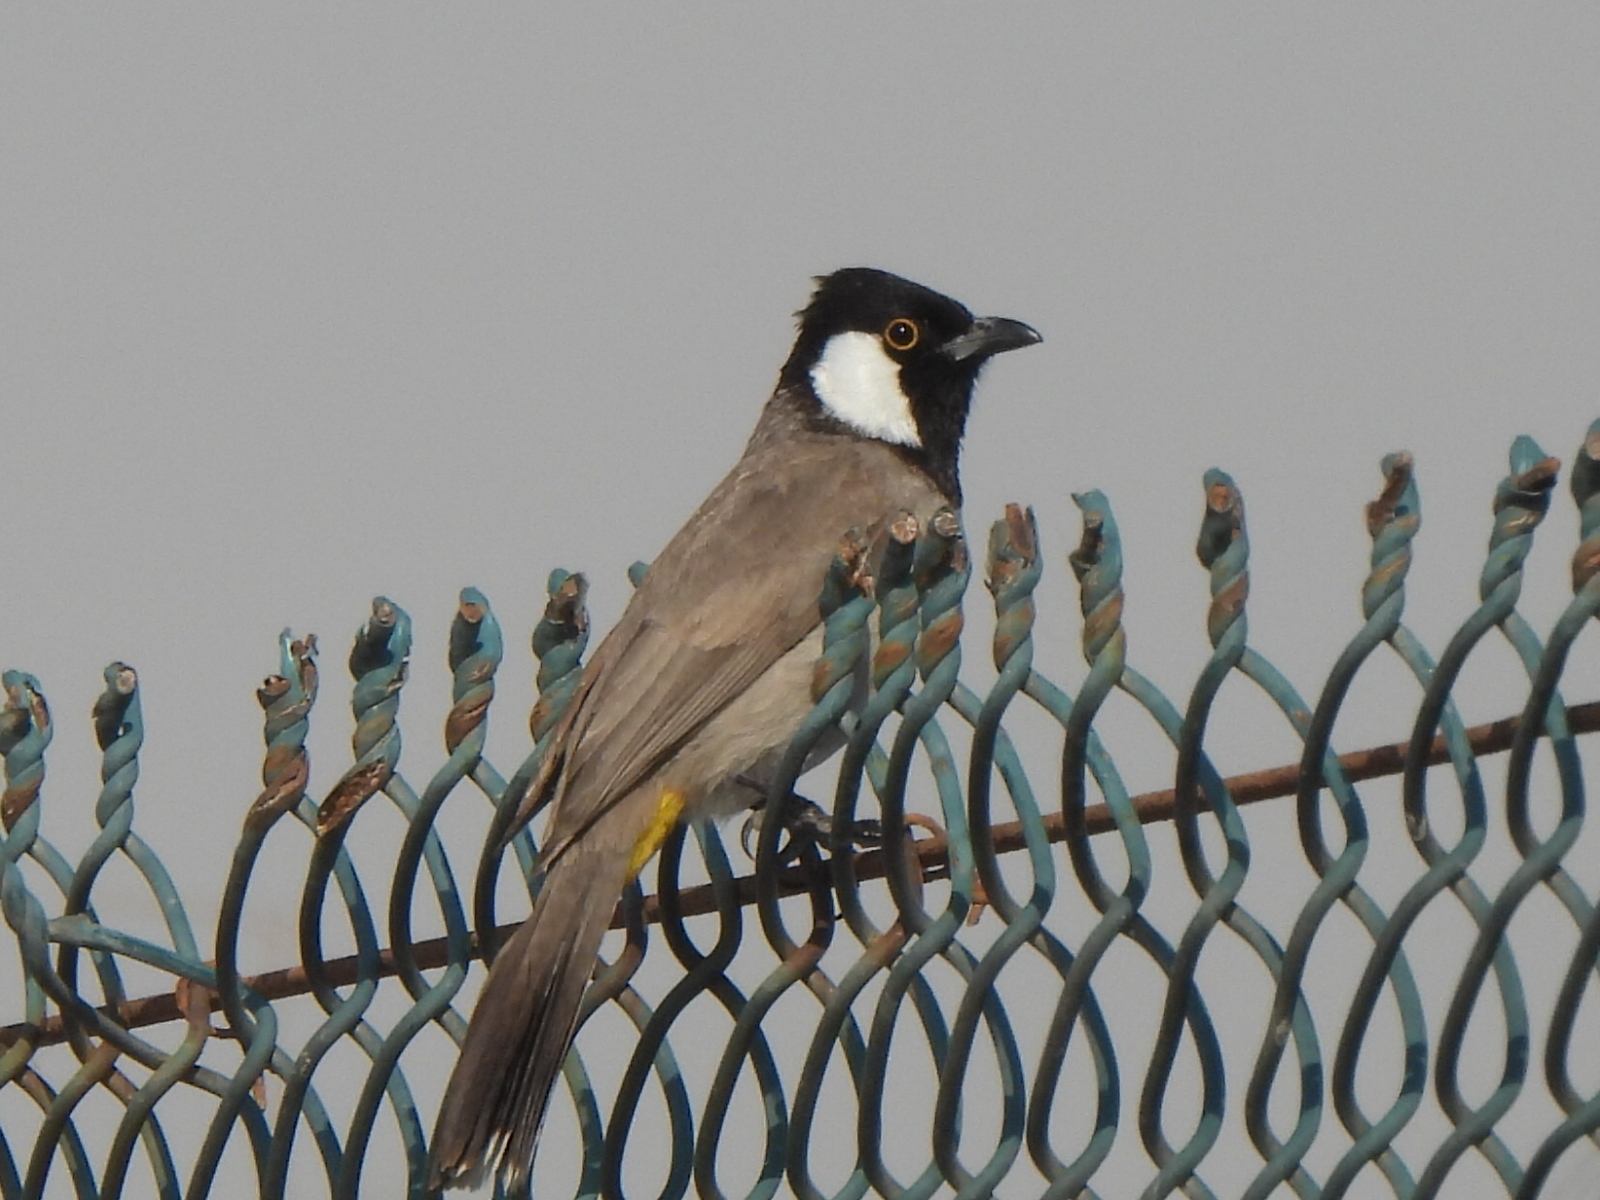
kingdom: Animalia
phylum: Chordata
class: Aves
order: Passeriformes
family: Pycnonotidae
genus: Pycnonotus
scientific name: Pycnonotus leucotis
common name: White-eared bulbul
